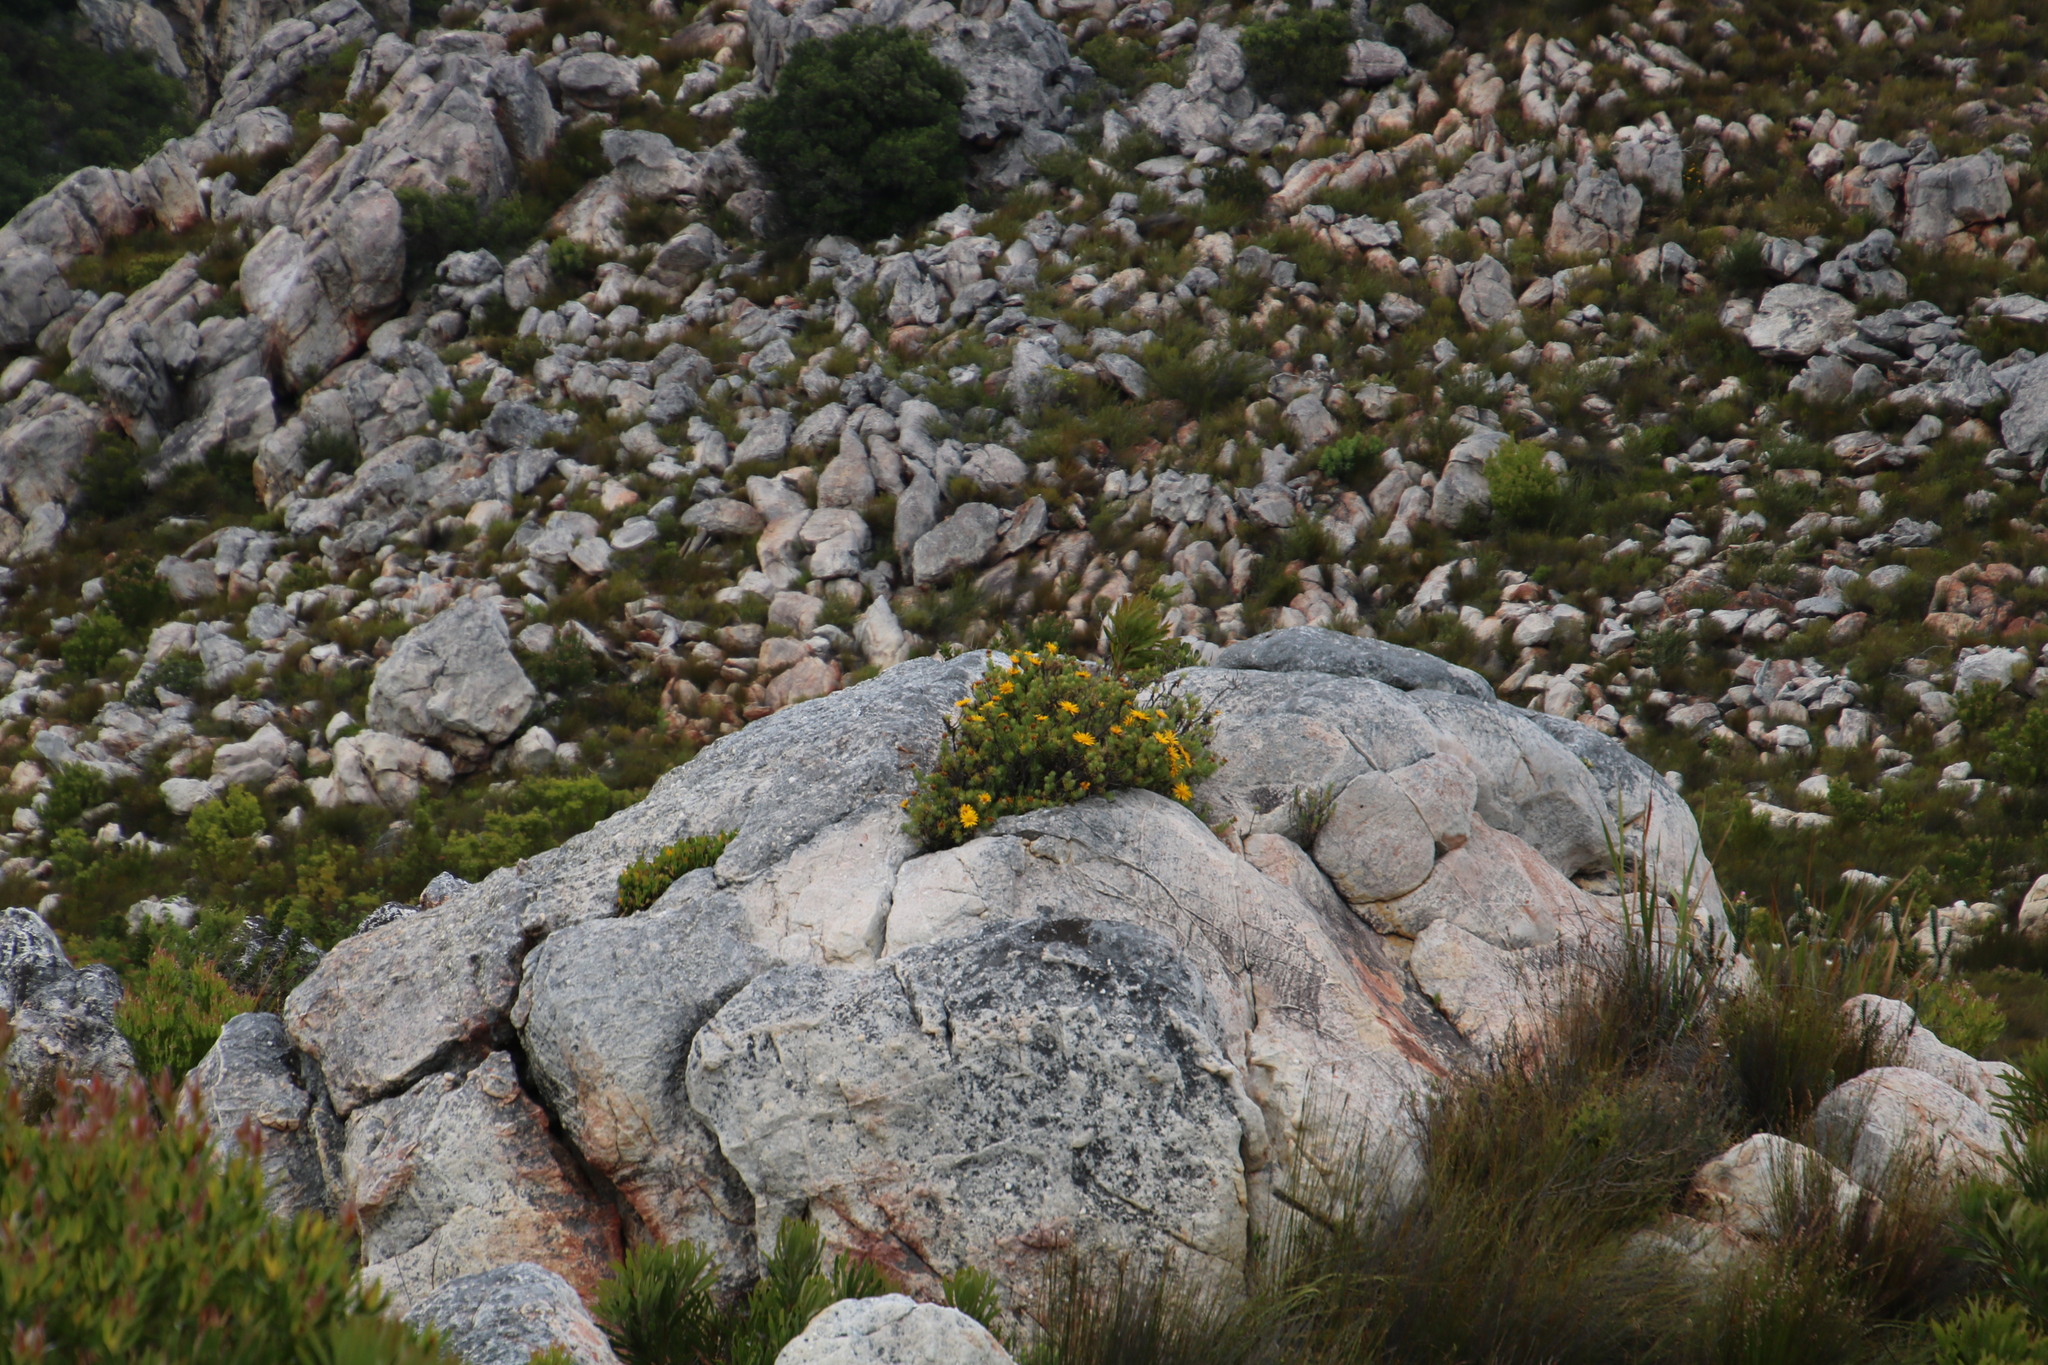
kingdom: Plantae
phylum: Tracheophyta
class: Magnoliopsida
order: Asterales
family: Asteraceae
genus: Heterolepis
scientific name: Heterolepis aliena
